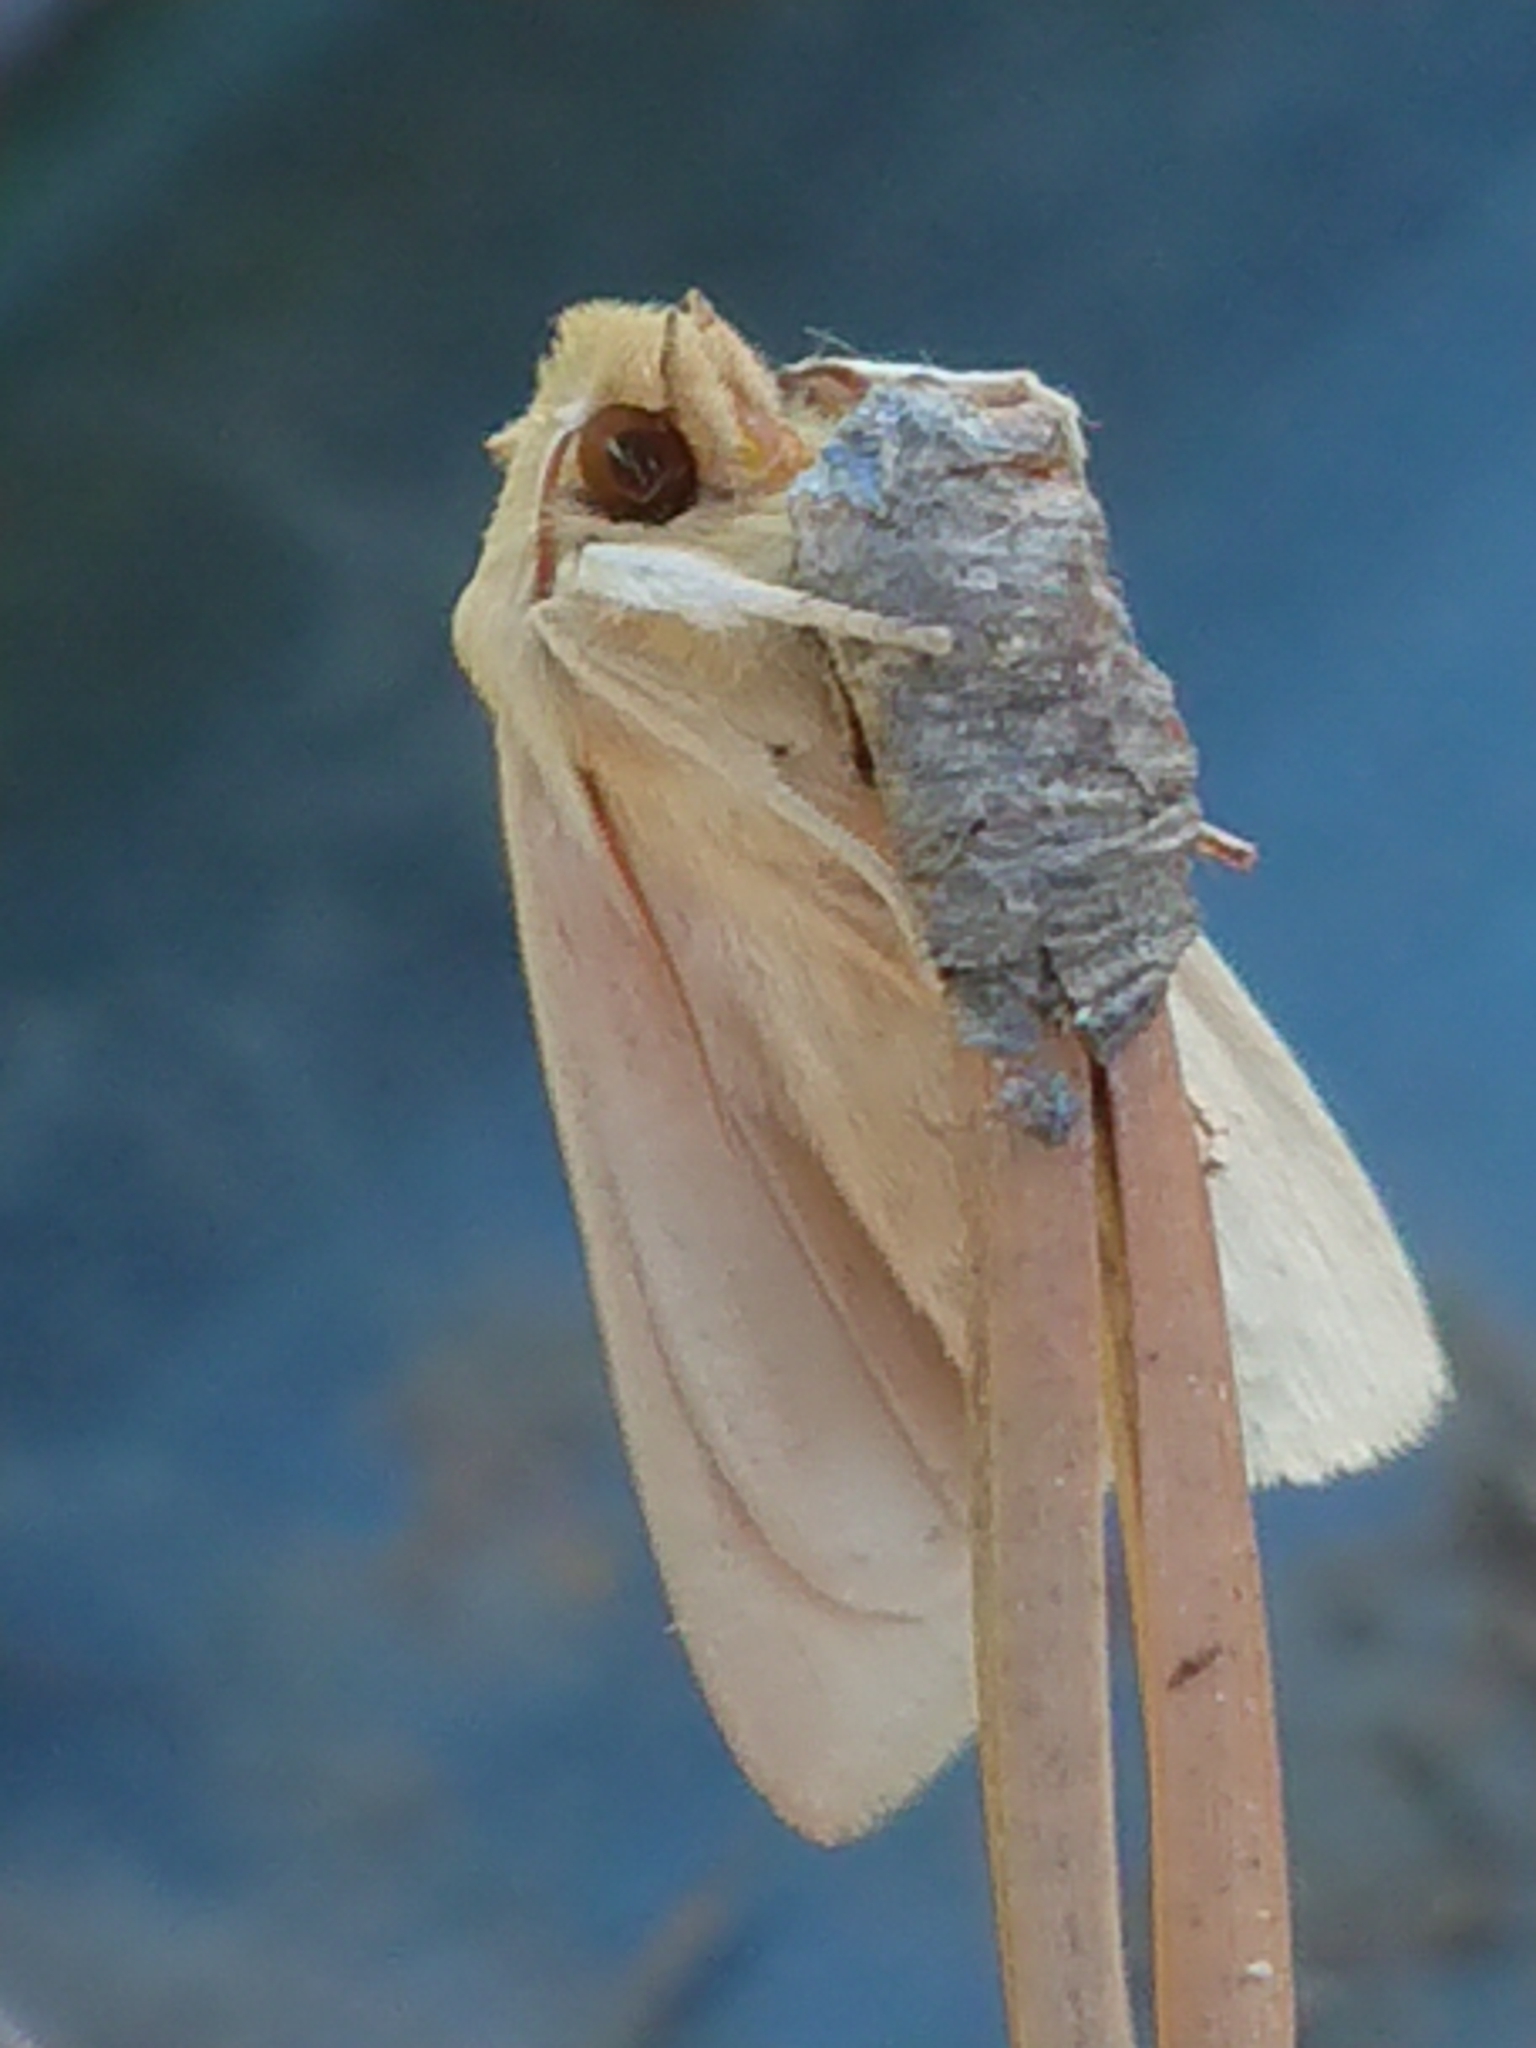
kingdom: Animalia
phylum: Arthropoda
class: Insecta
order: Lepidoptera
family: Noctuidae
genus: Ichneutica
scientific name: Ichneutica semivittata
